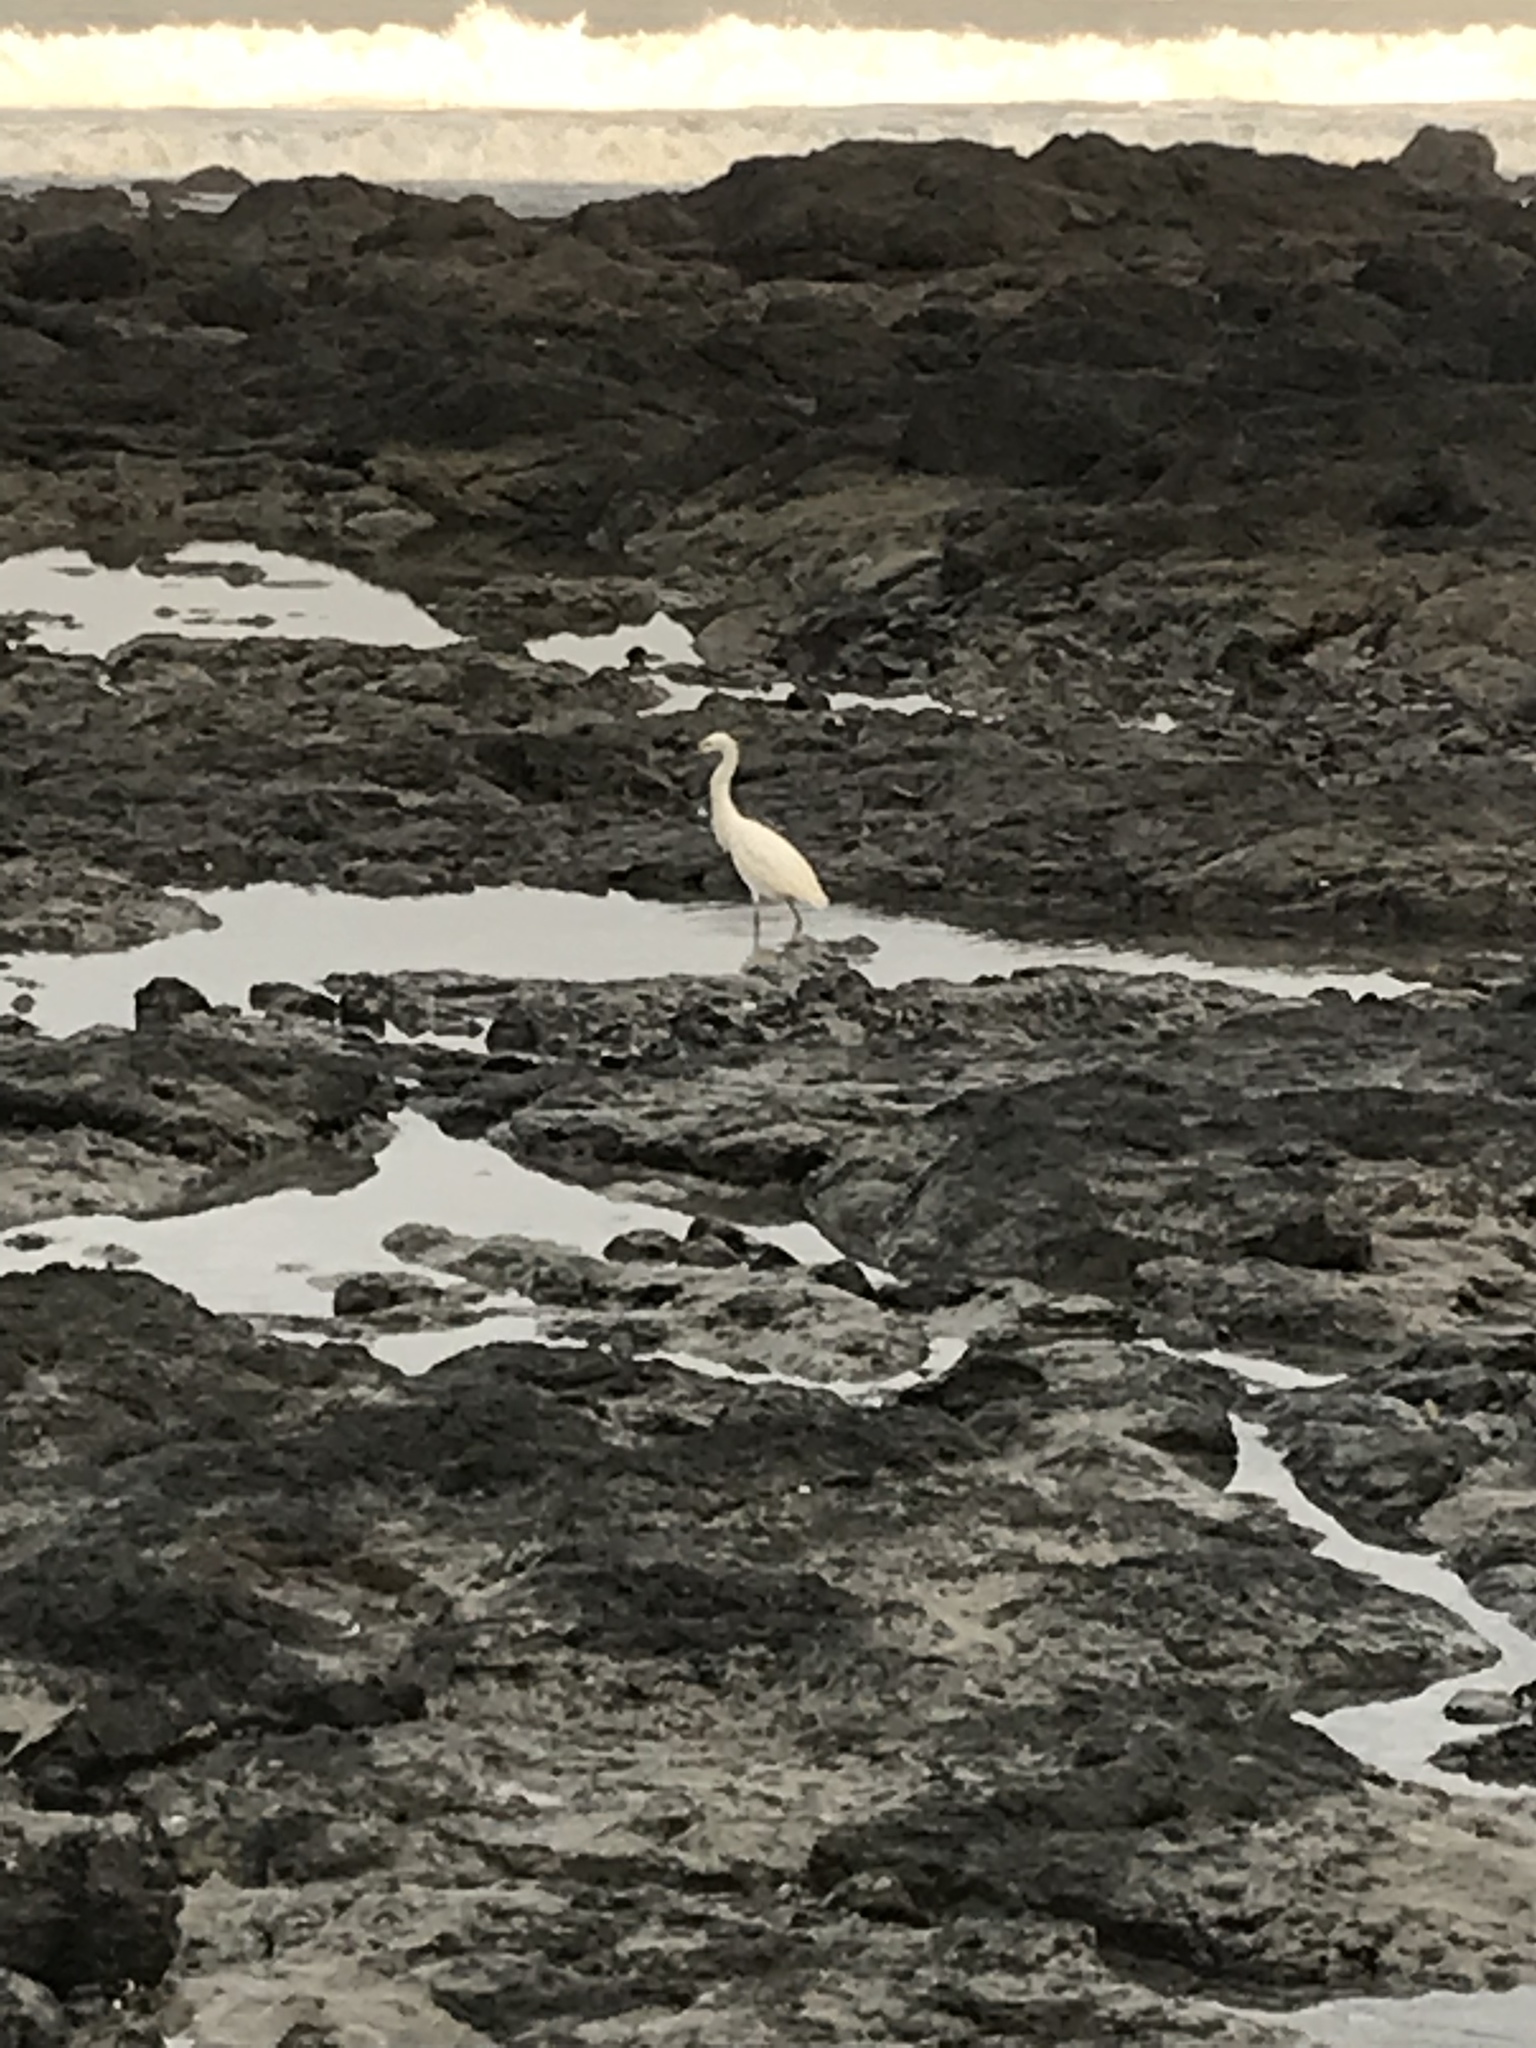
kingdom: Animalia
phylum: Chordata
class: Aves
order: Pelecaniformes
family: Ardeidae
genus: Egretta
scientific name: Egretta thula
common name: Snowy egret
